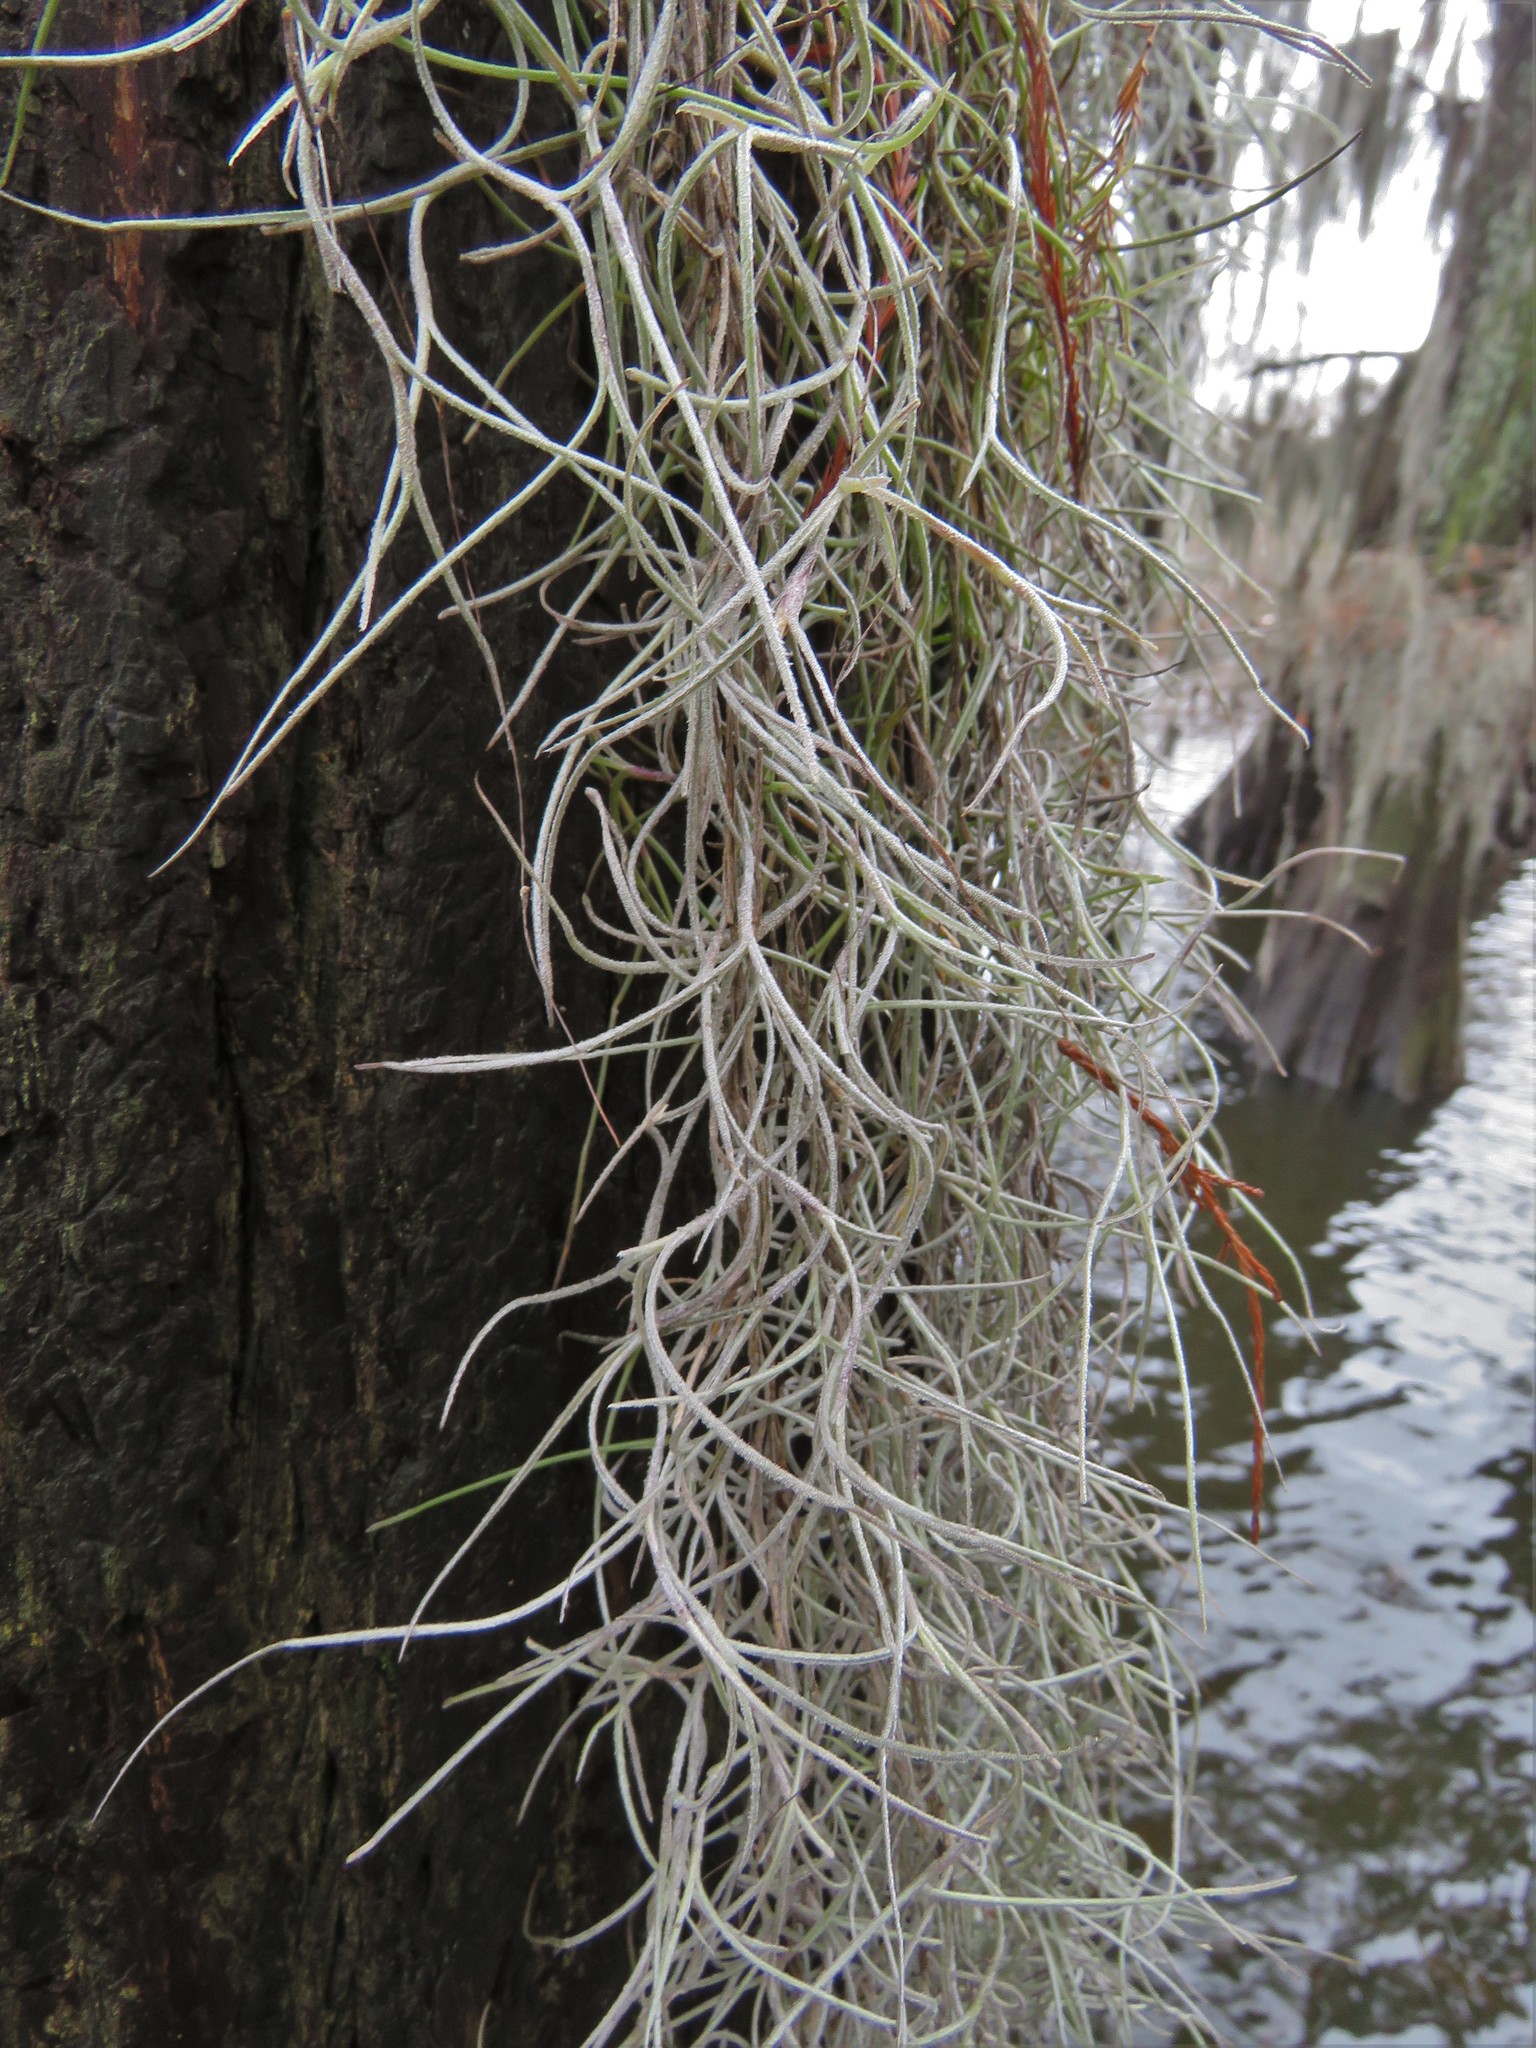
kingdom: Plantae
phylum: Tracheophyta
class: Liliopsida
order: Poales
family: Bromeliaceae
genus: Tillandsia
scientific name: Tillandsia usneoides
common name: Spanish moss
